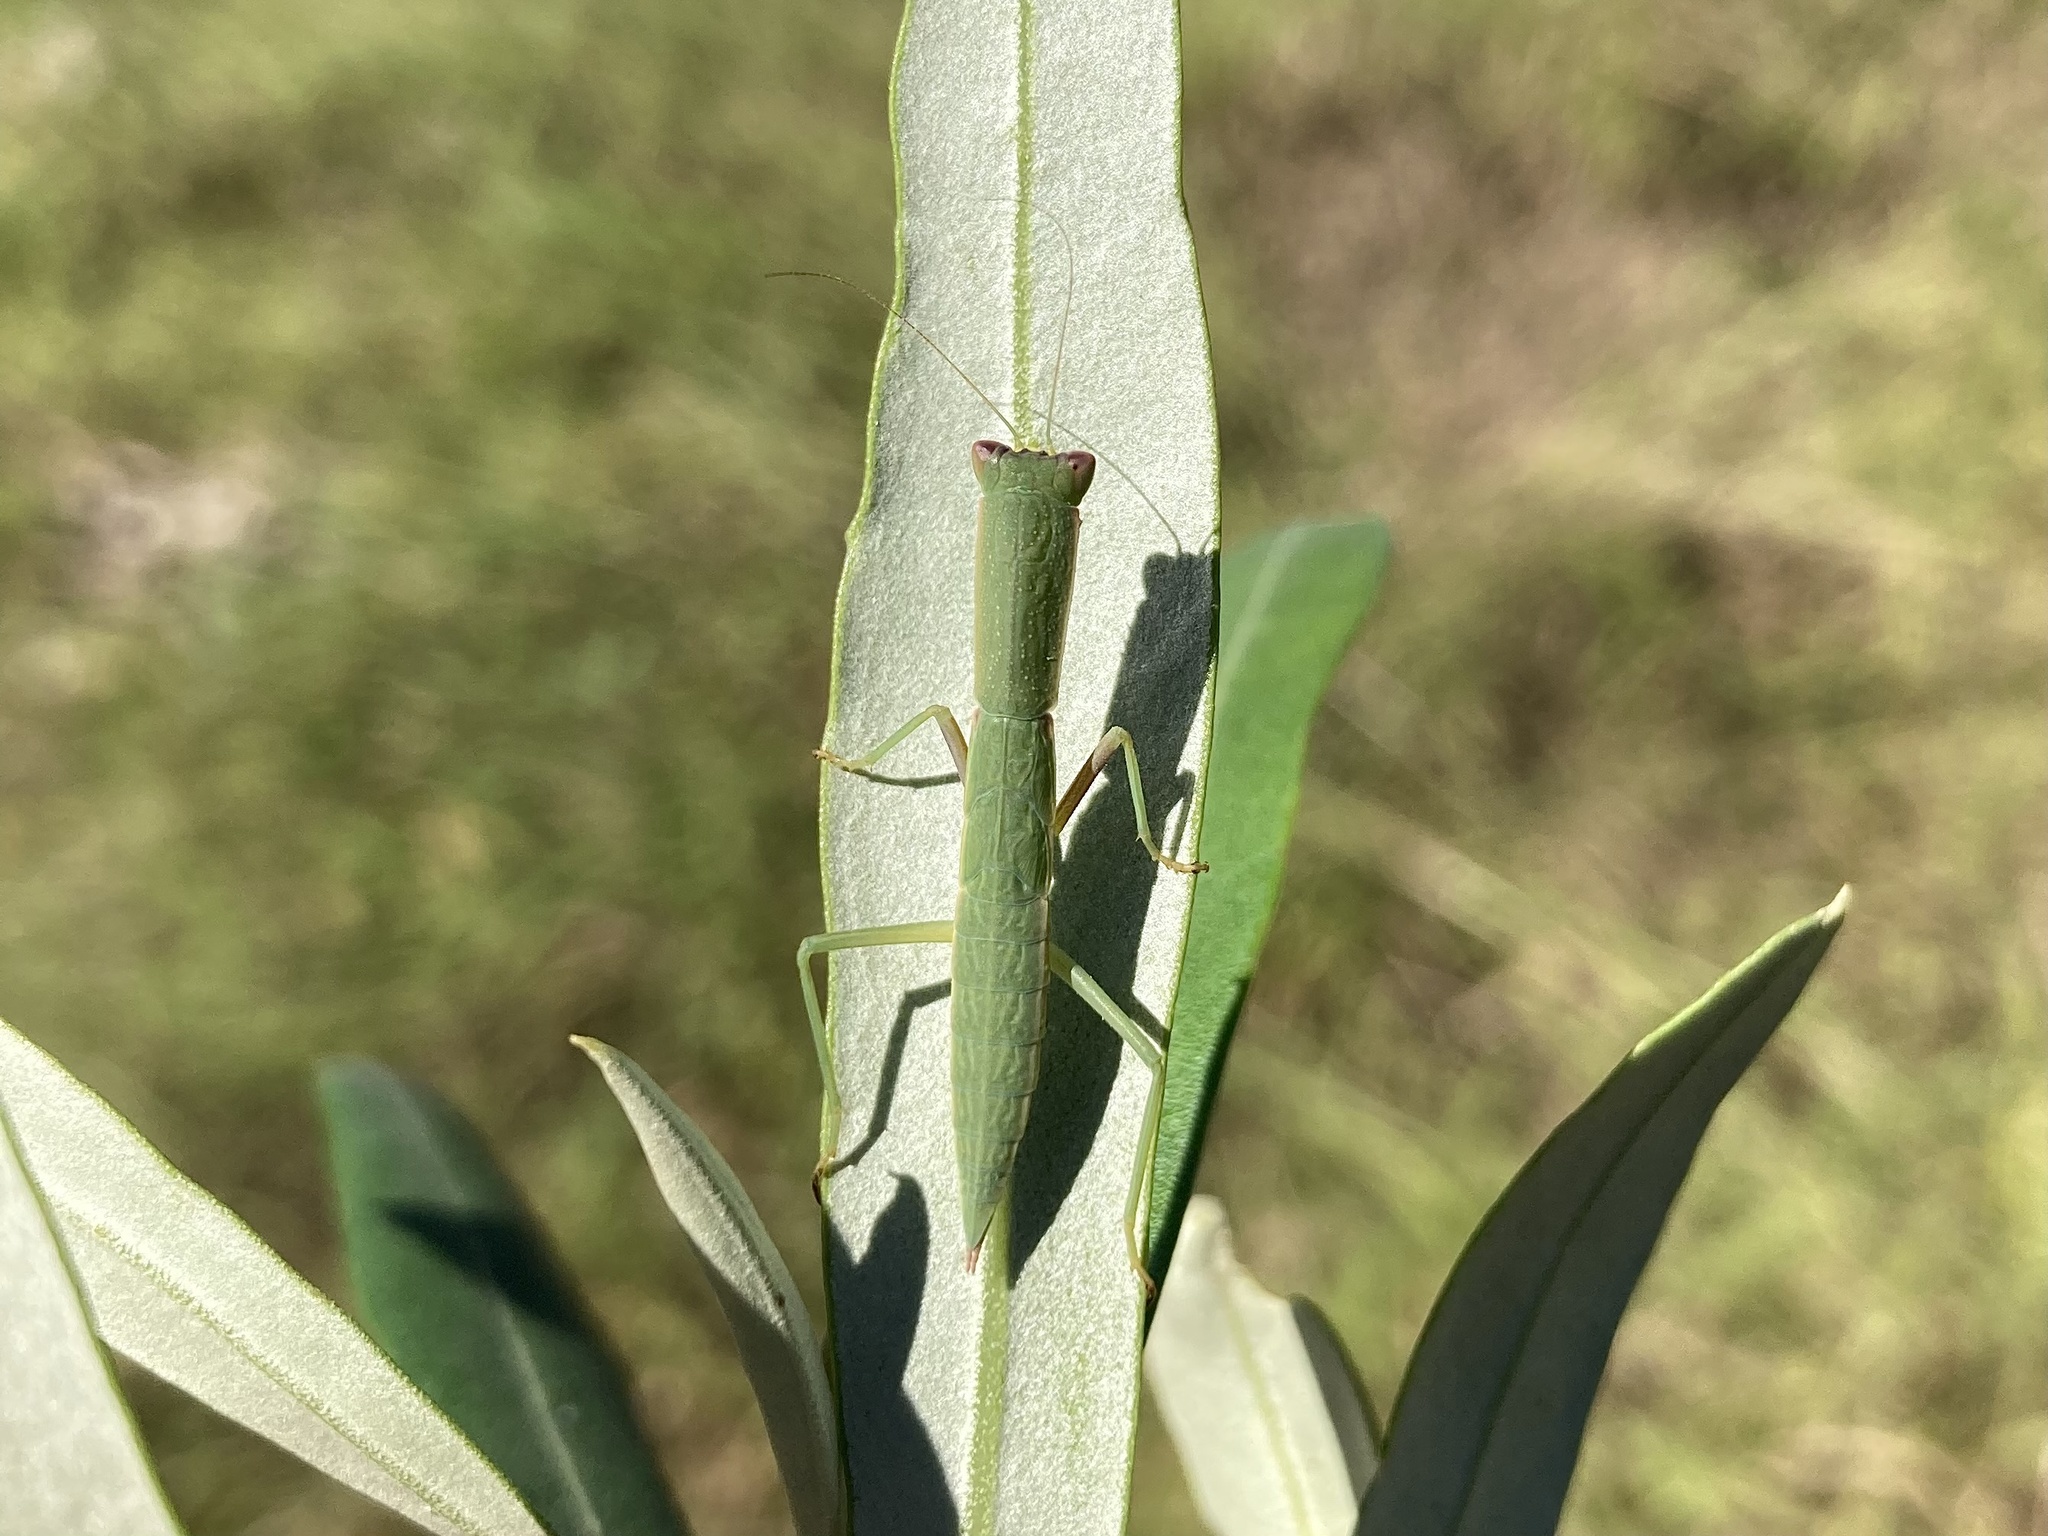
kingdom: Animalia
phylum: Arthropoda
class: Insecta
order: Mantodea
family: Mantidae
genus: Orthodera
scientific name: Orthodera ministralis
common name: Mantis
